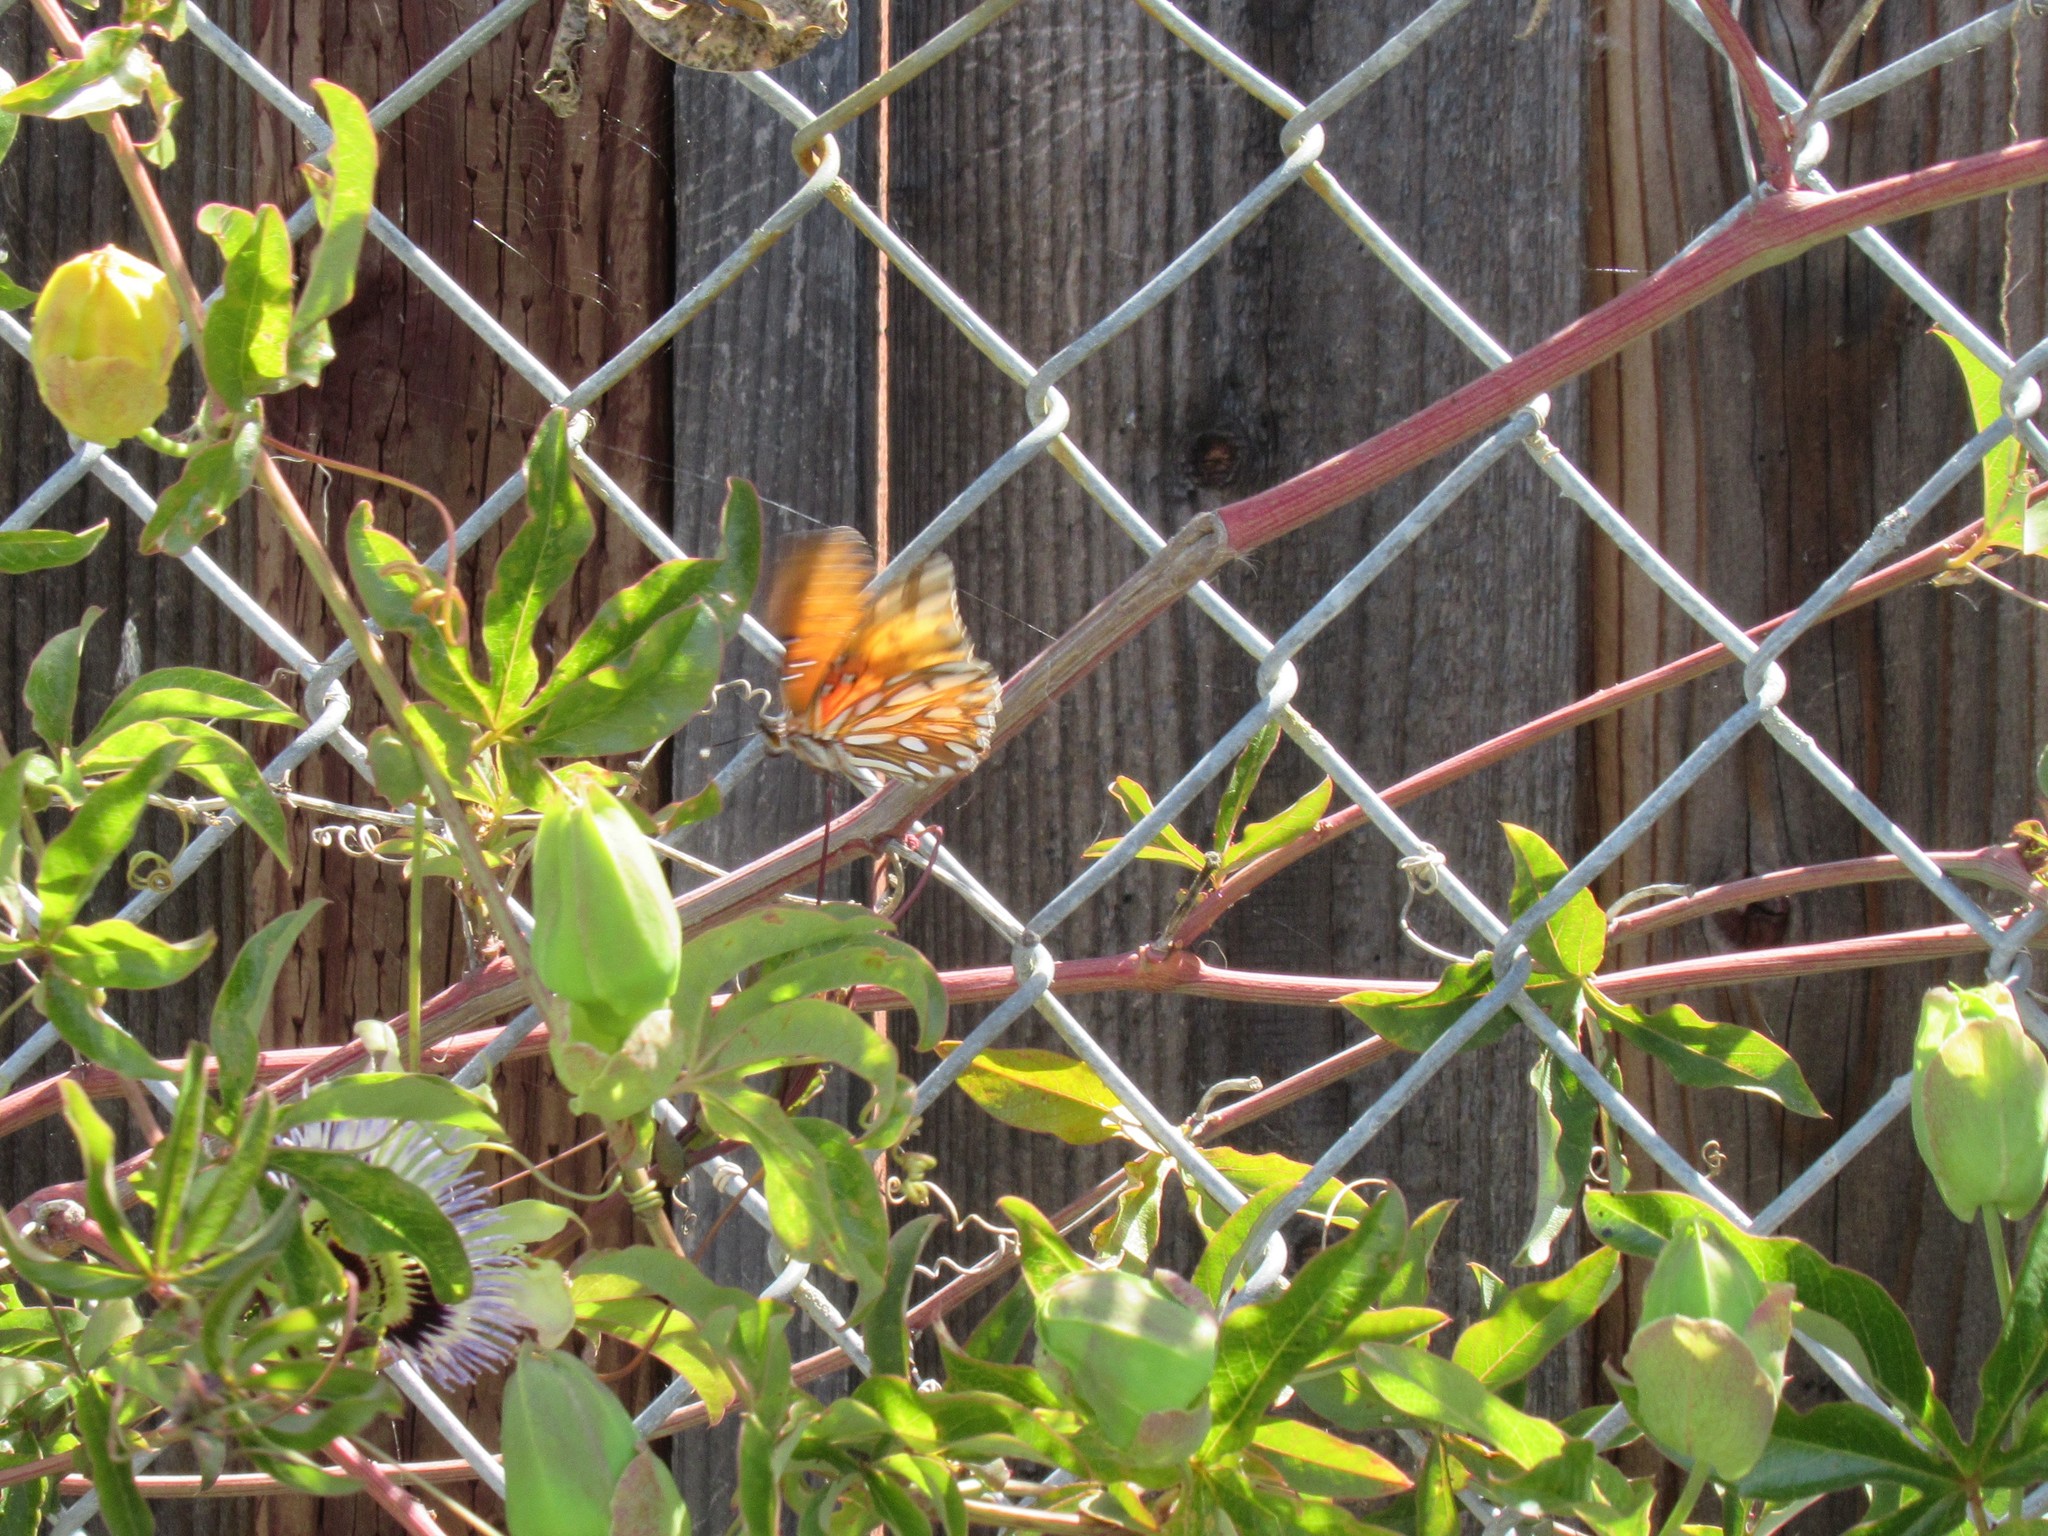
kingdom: Animalia
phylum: Arthropoda
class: Insecta
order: Lepidoptera
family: Nymphalidae
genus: Dione
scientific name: Dione vanillae
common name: Gulf fritillary
